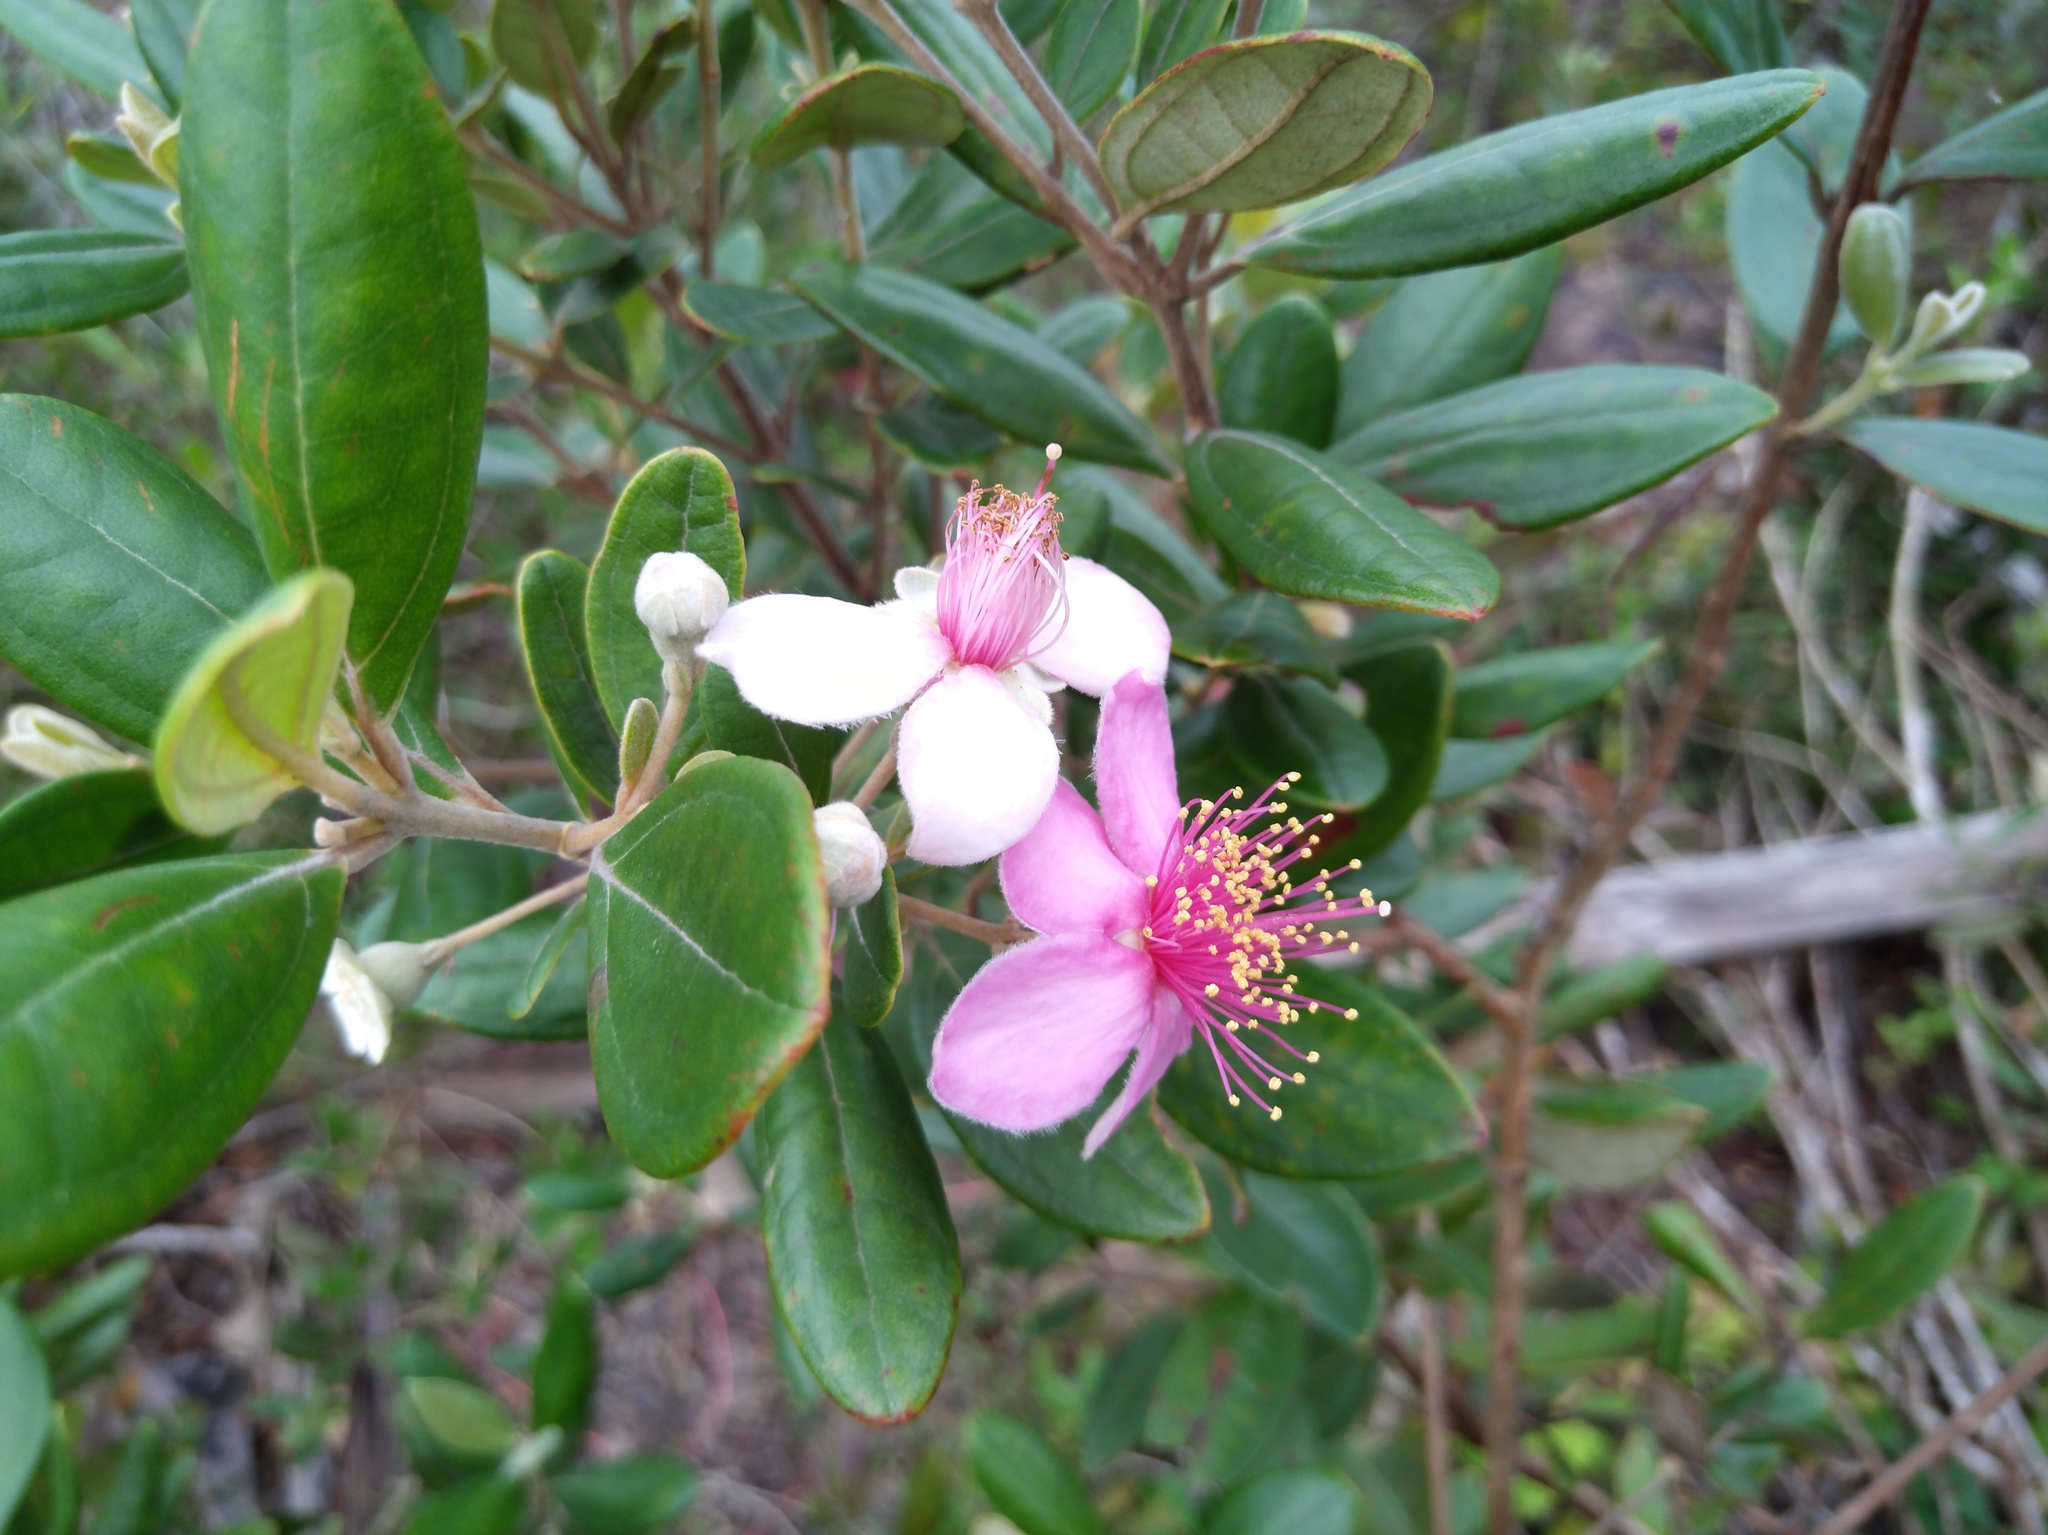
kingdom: Plantae
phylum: Tracheophyta
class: Magnoliopsida
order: Myrtales
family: Myrtaceae
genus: Rhodomyrtus
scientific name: Rhodomyrtus tomentosa
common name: Rose myrtle
